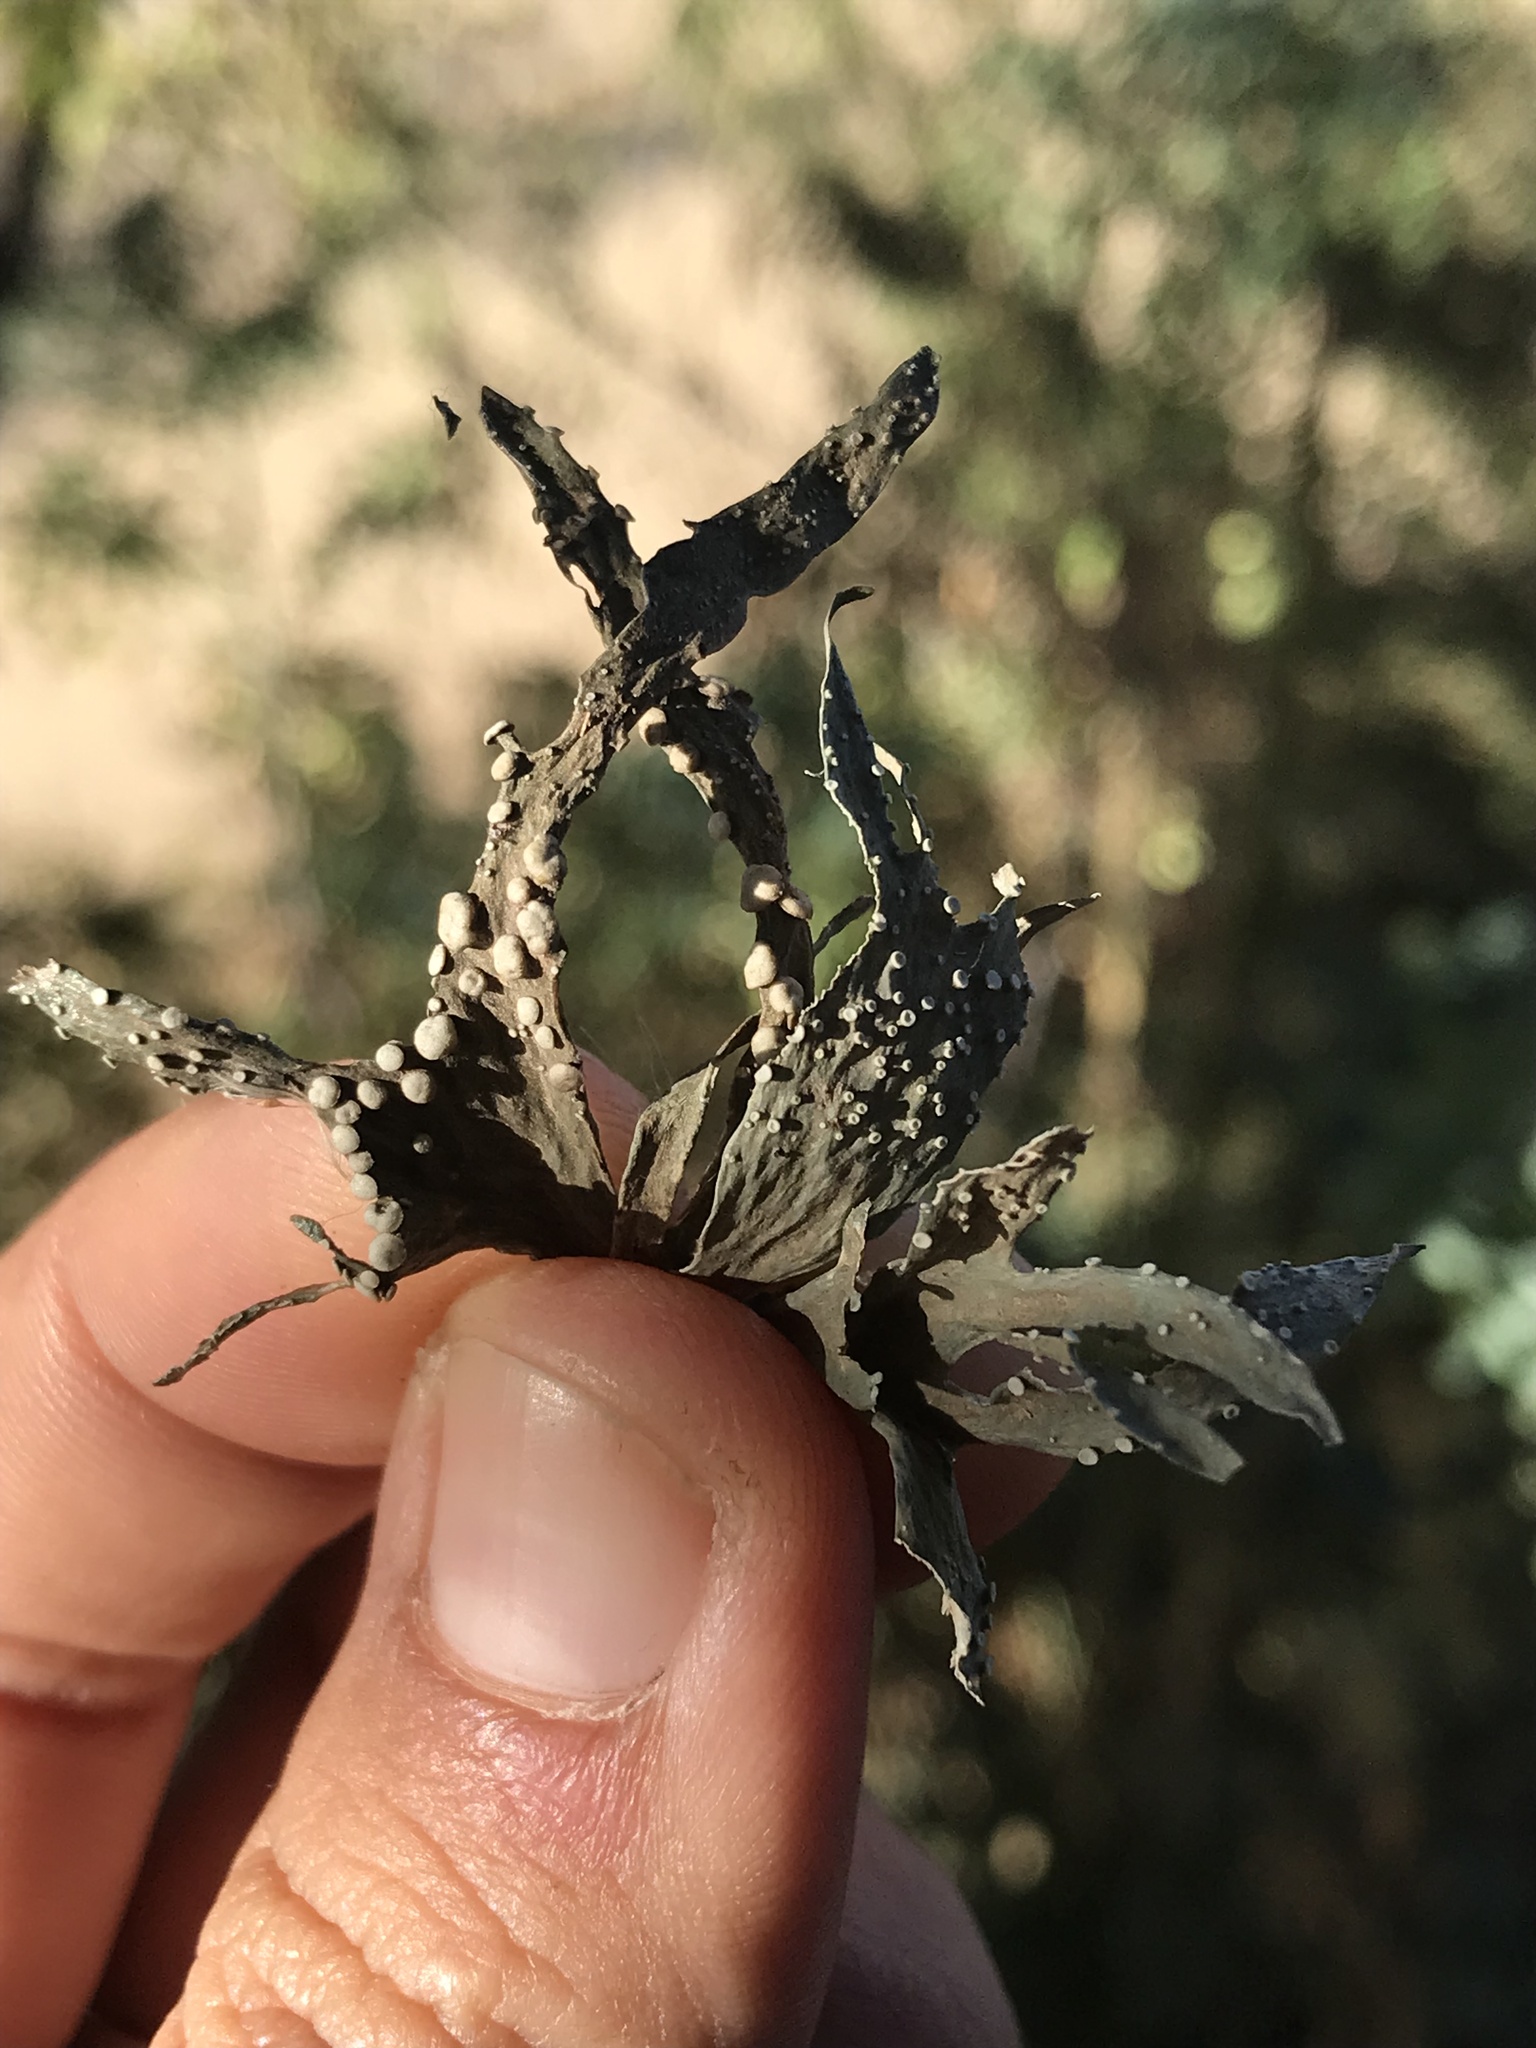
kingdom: Fungi
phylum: Ascomycota
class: Lecanoromycetes
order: Lecanorales
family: Ramalinaceae
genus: Ramalina
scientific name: Ramalina celastri
